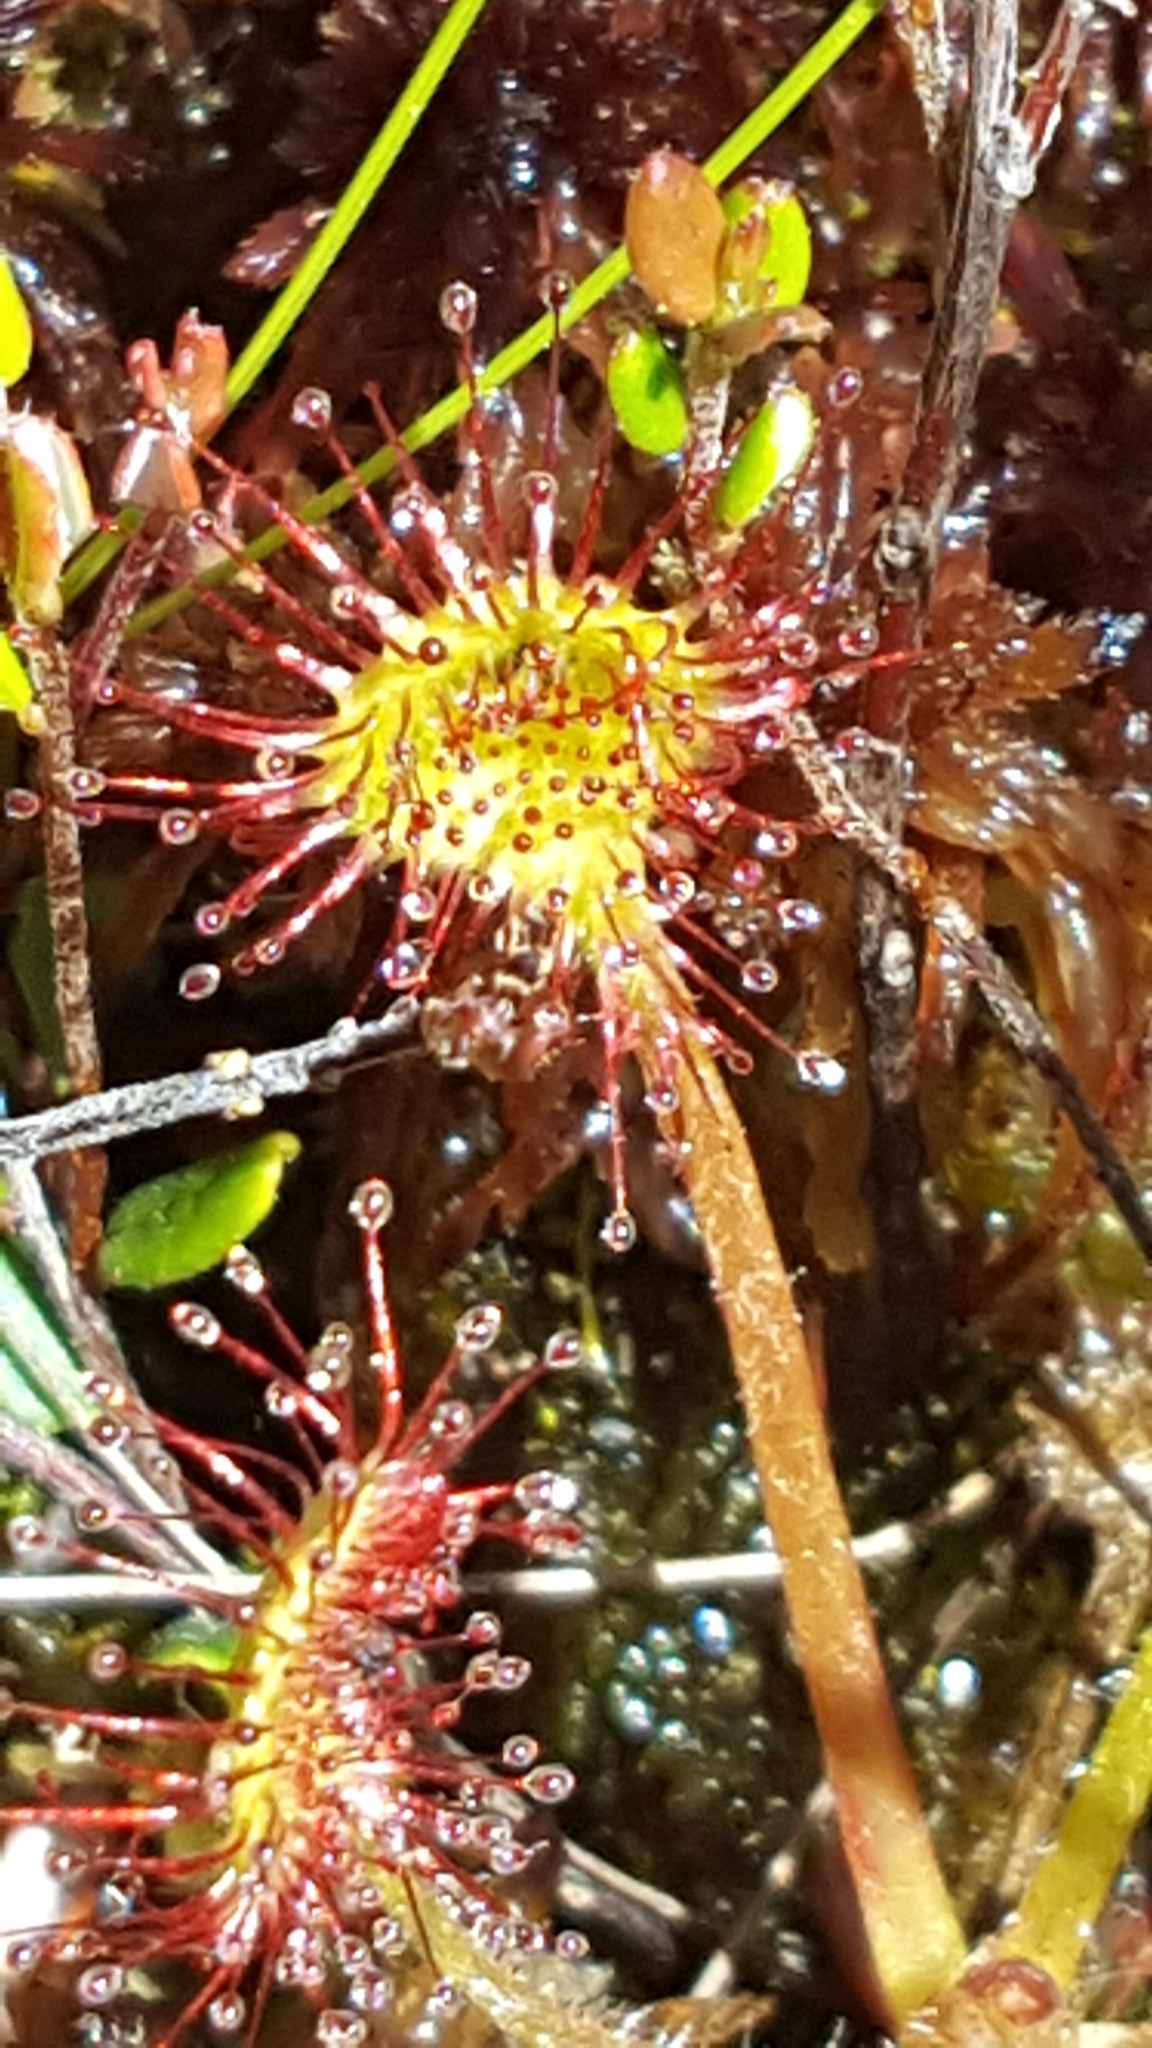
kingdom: Plantae
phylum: Tracheophyta
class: Magnoliopsida
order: Caryophyllales
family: Droseraceae
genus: Drosera
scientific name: Drosera rotundifolia
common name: Round-leaved sundew
